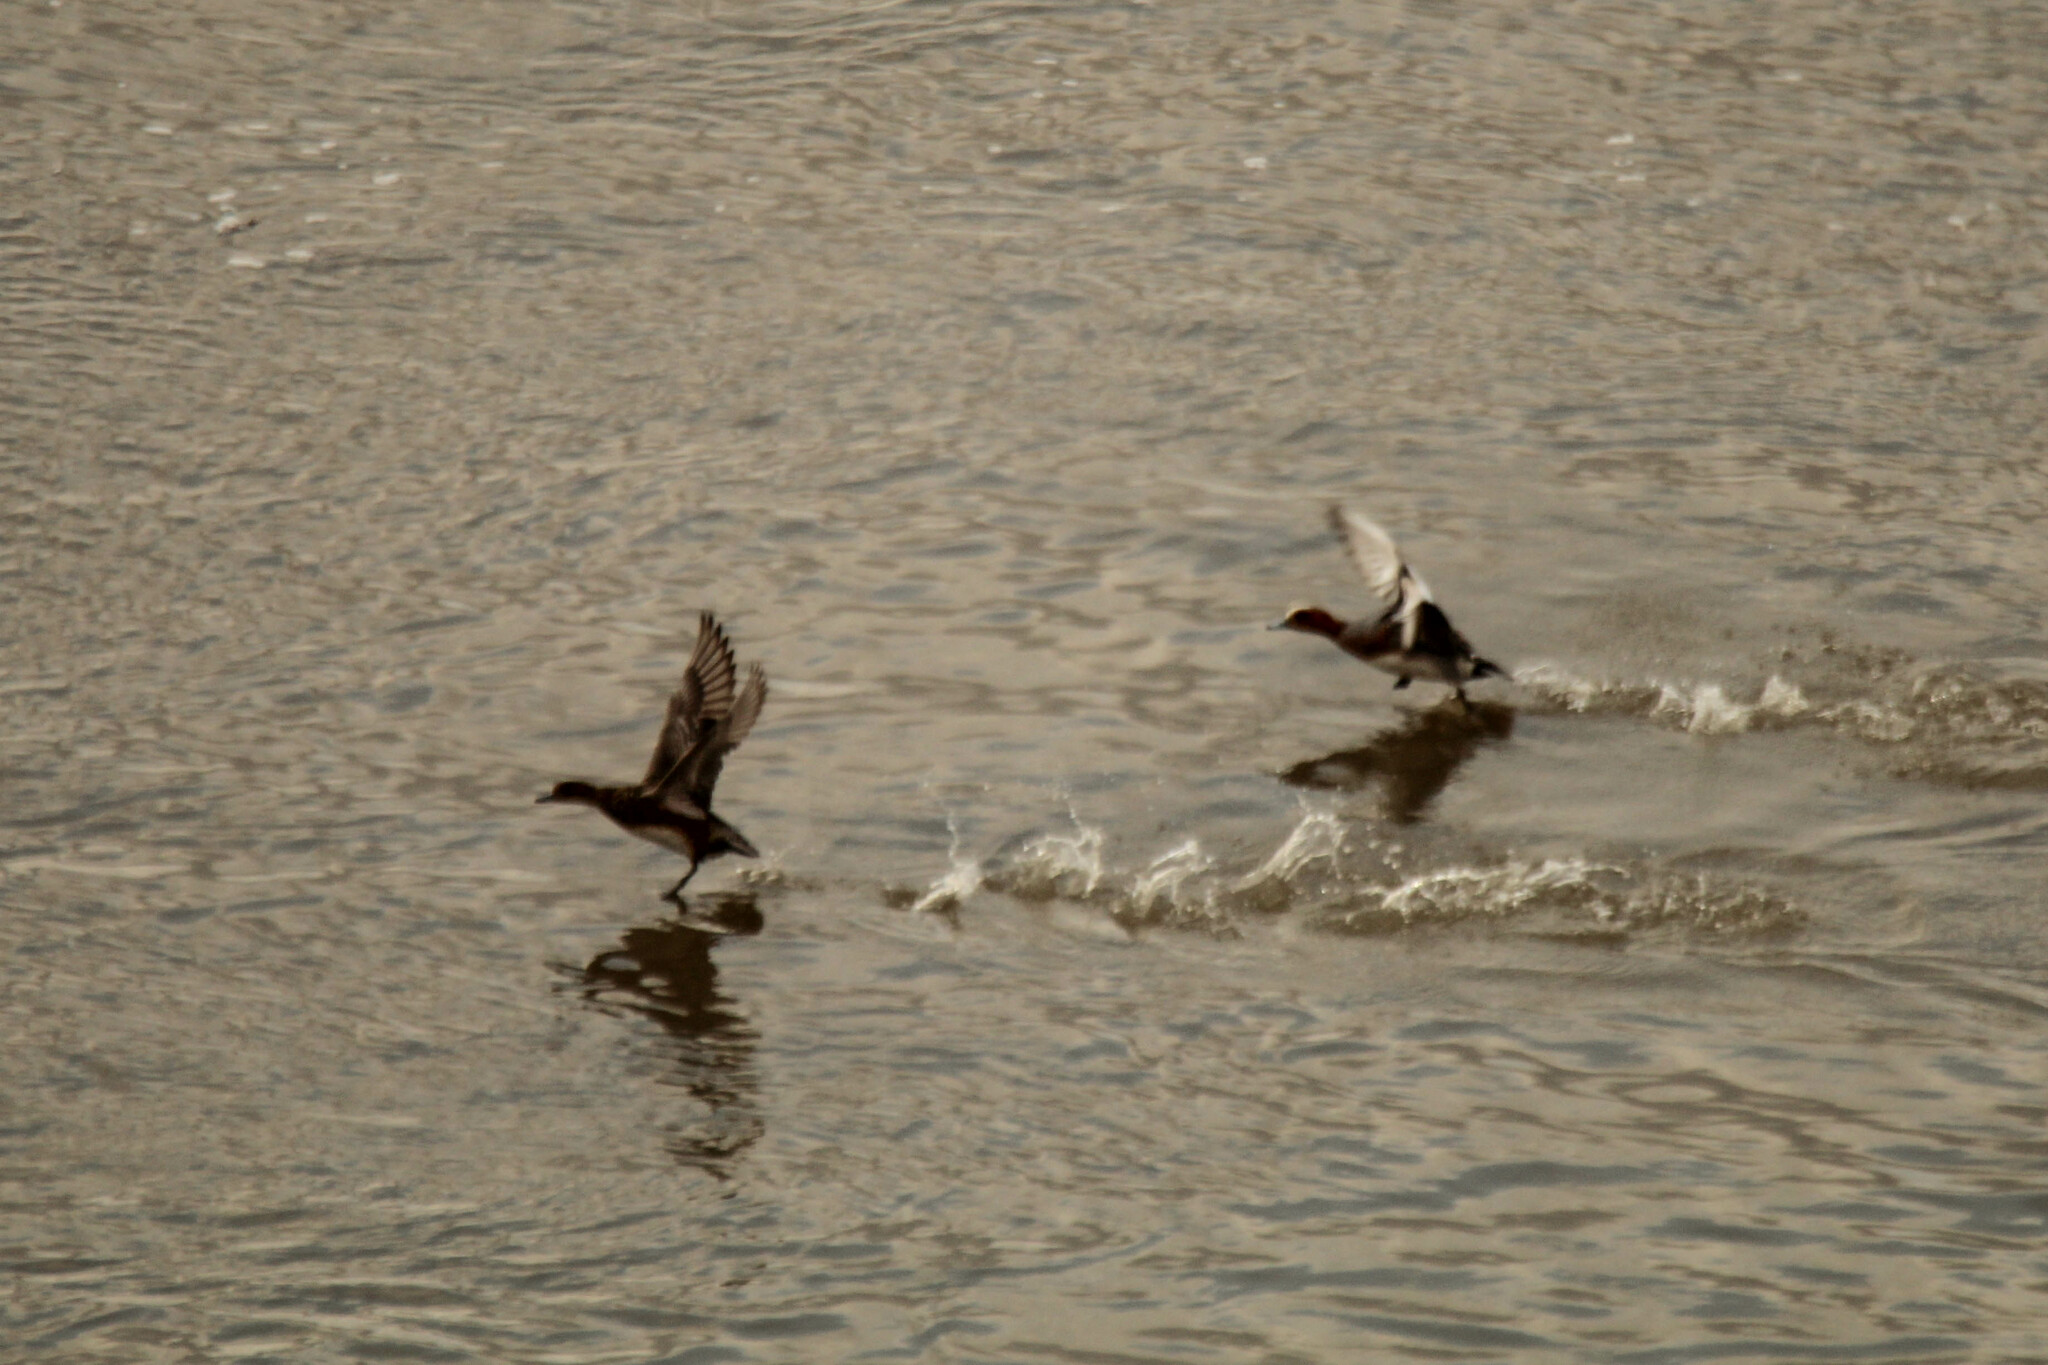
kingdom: Animalia
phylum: Chordata
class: Aves
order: Anseriformes
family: Anatidae
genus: Mareca
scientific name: Mareca penelope
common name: Eurasian wigeon
